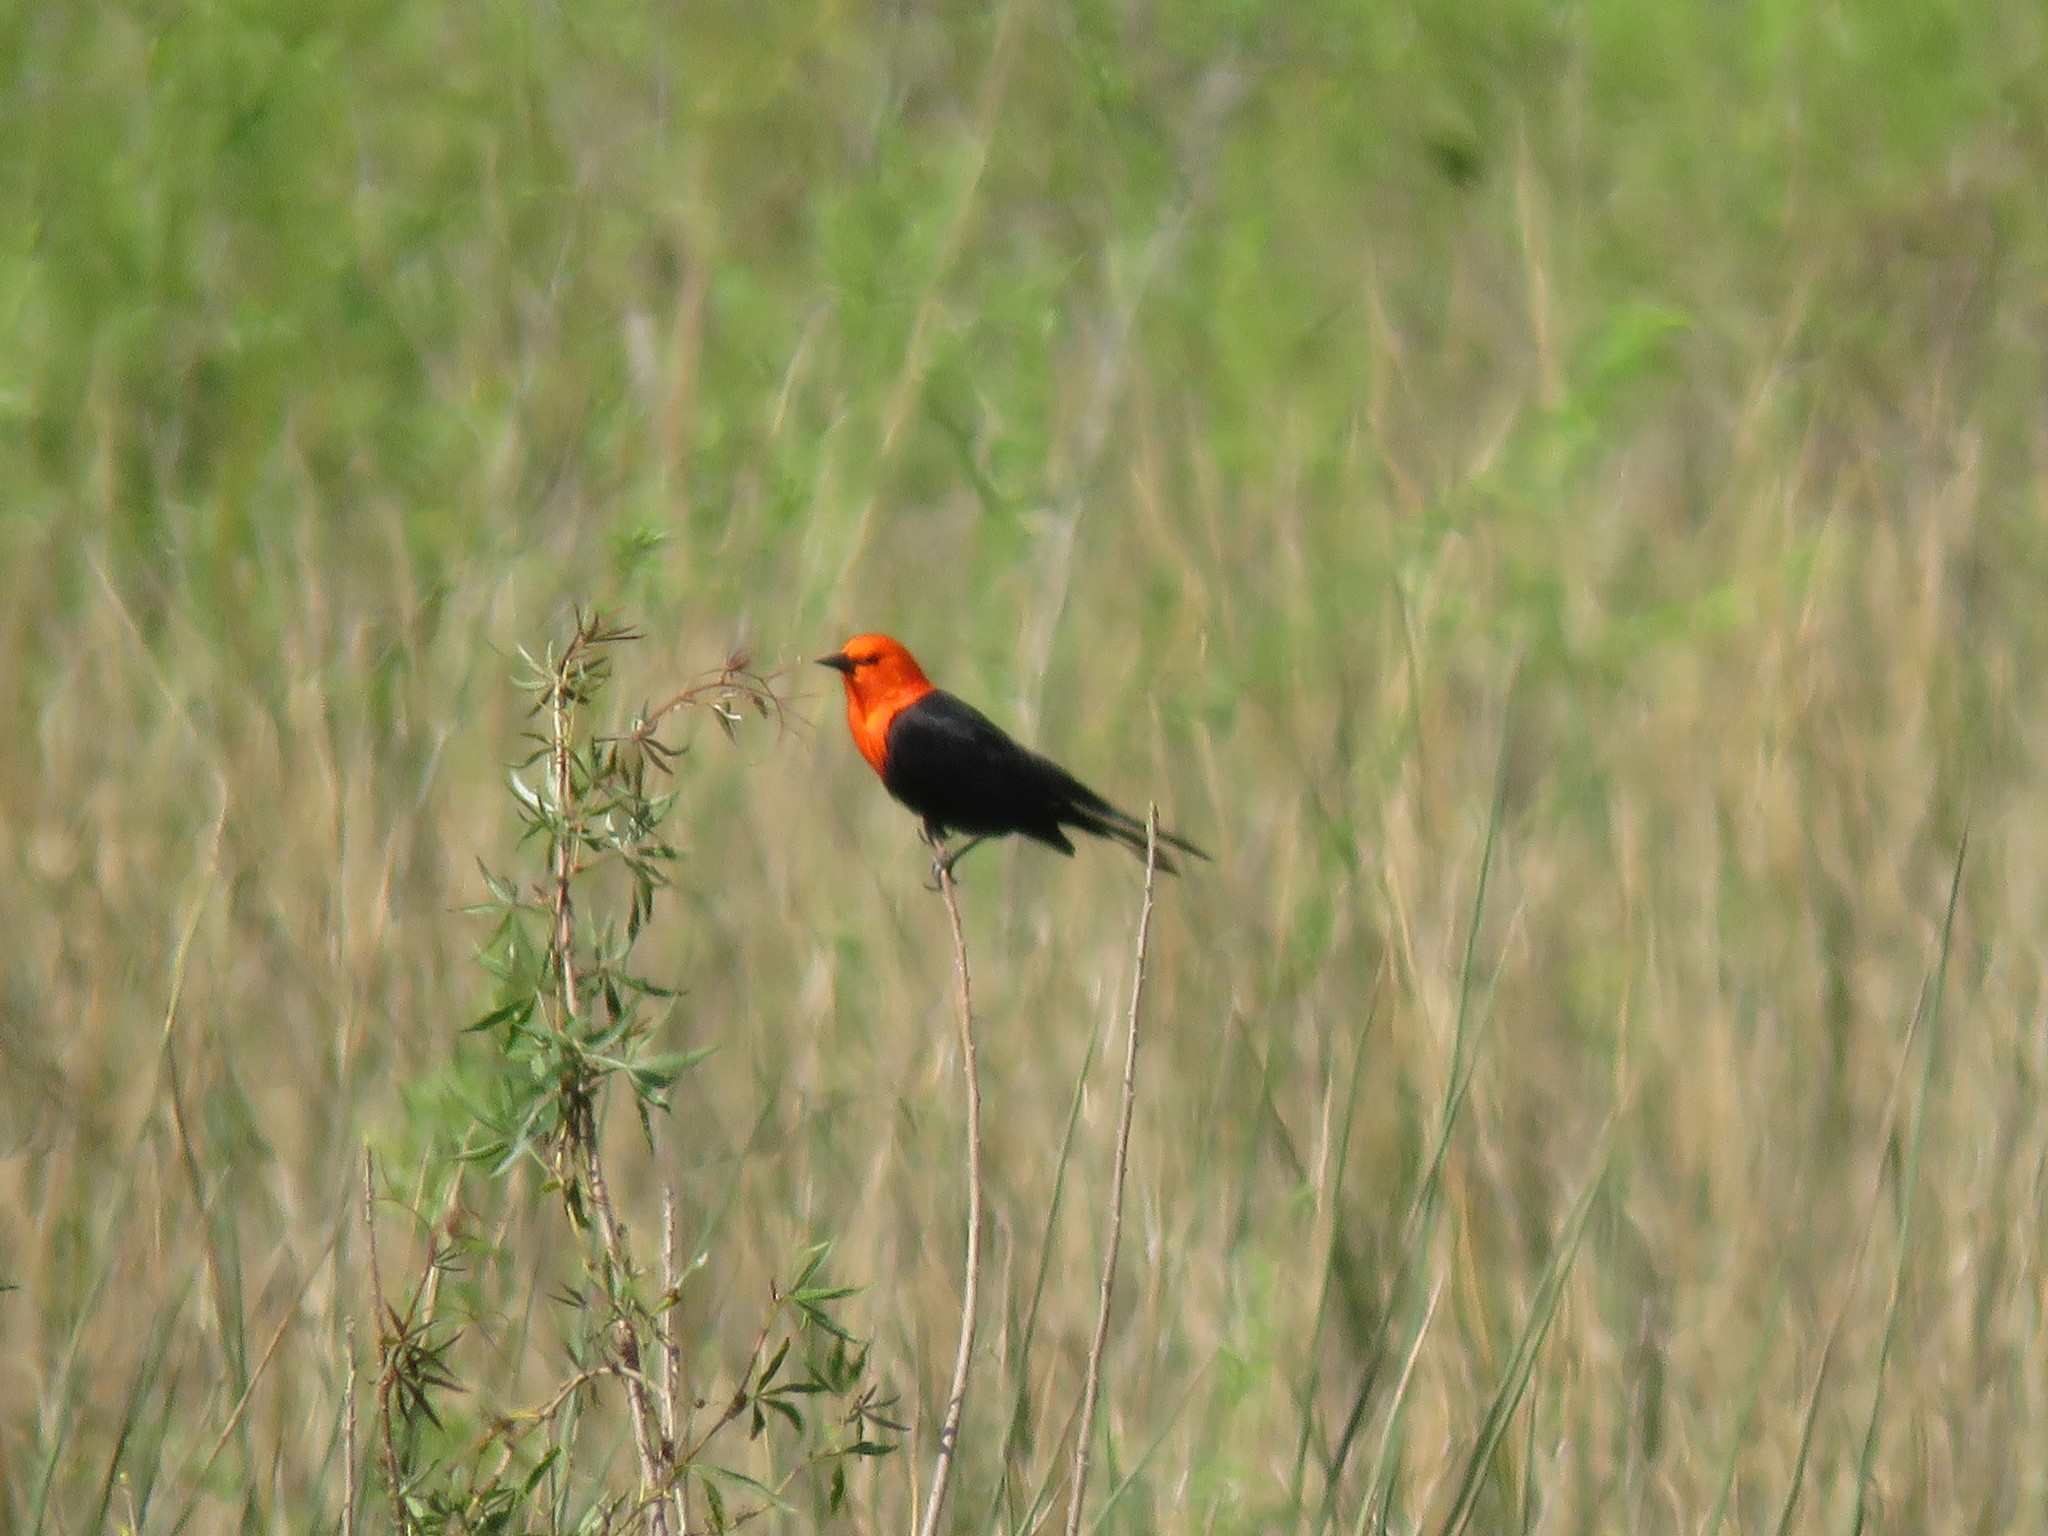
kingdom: Animalia
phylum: Chordata
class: Aves
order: Passeriformes
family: Icteridae
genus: Amblyramphus
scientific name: Amblyramphus holosericeus
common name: Scarlet-headed blackbird
